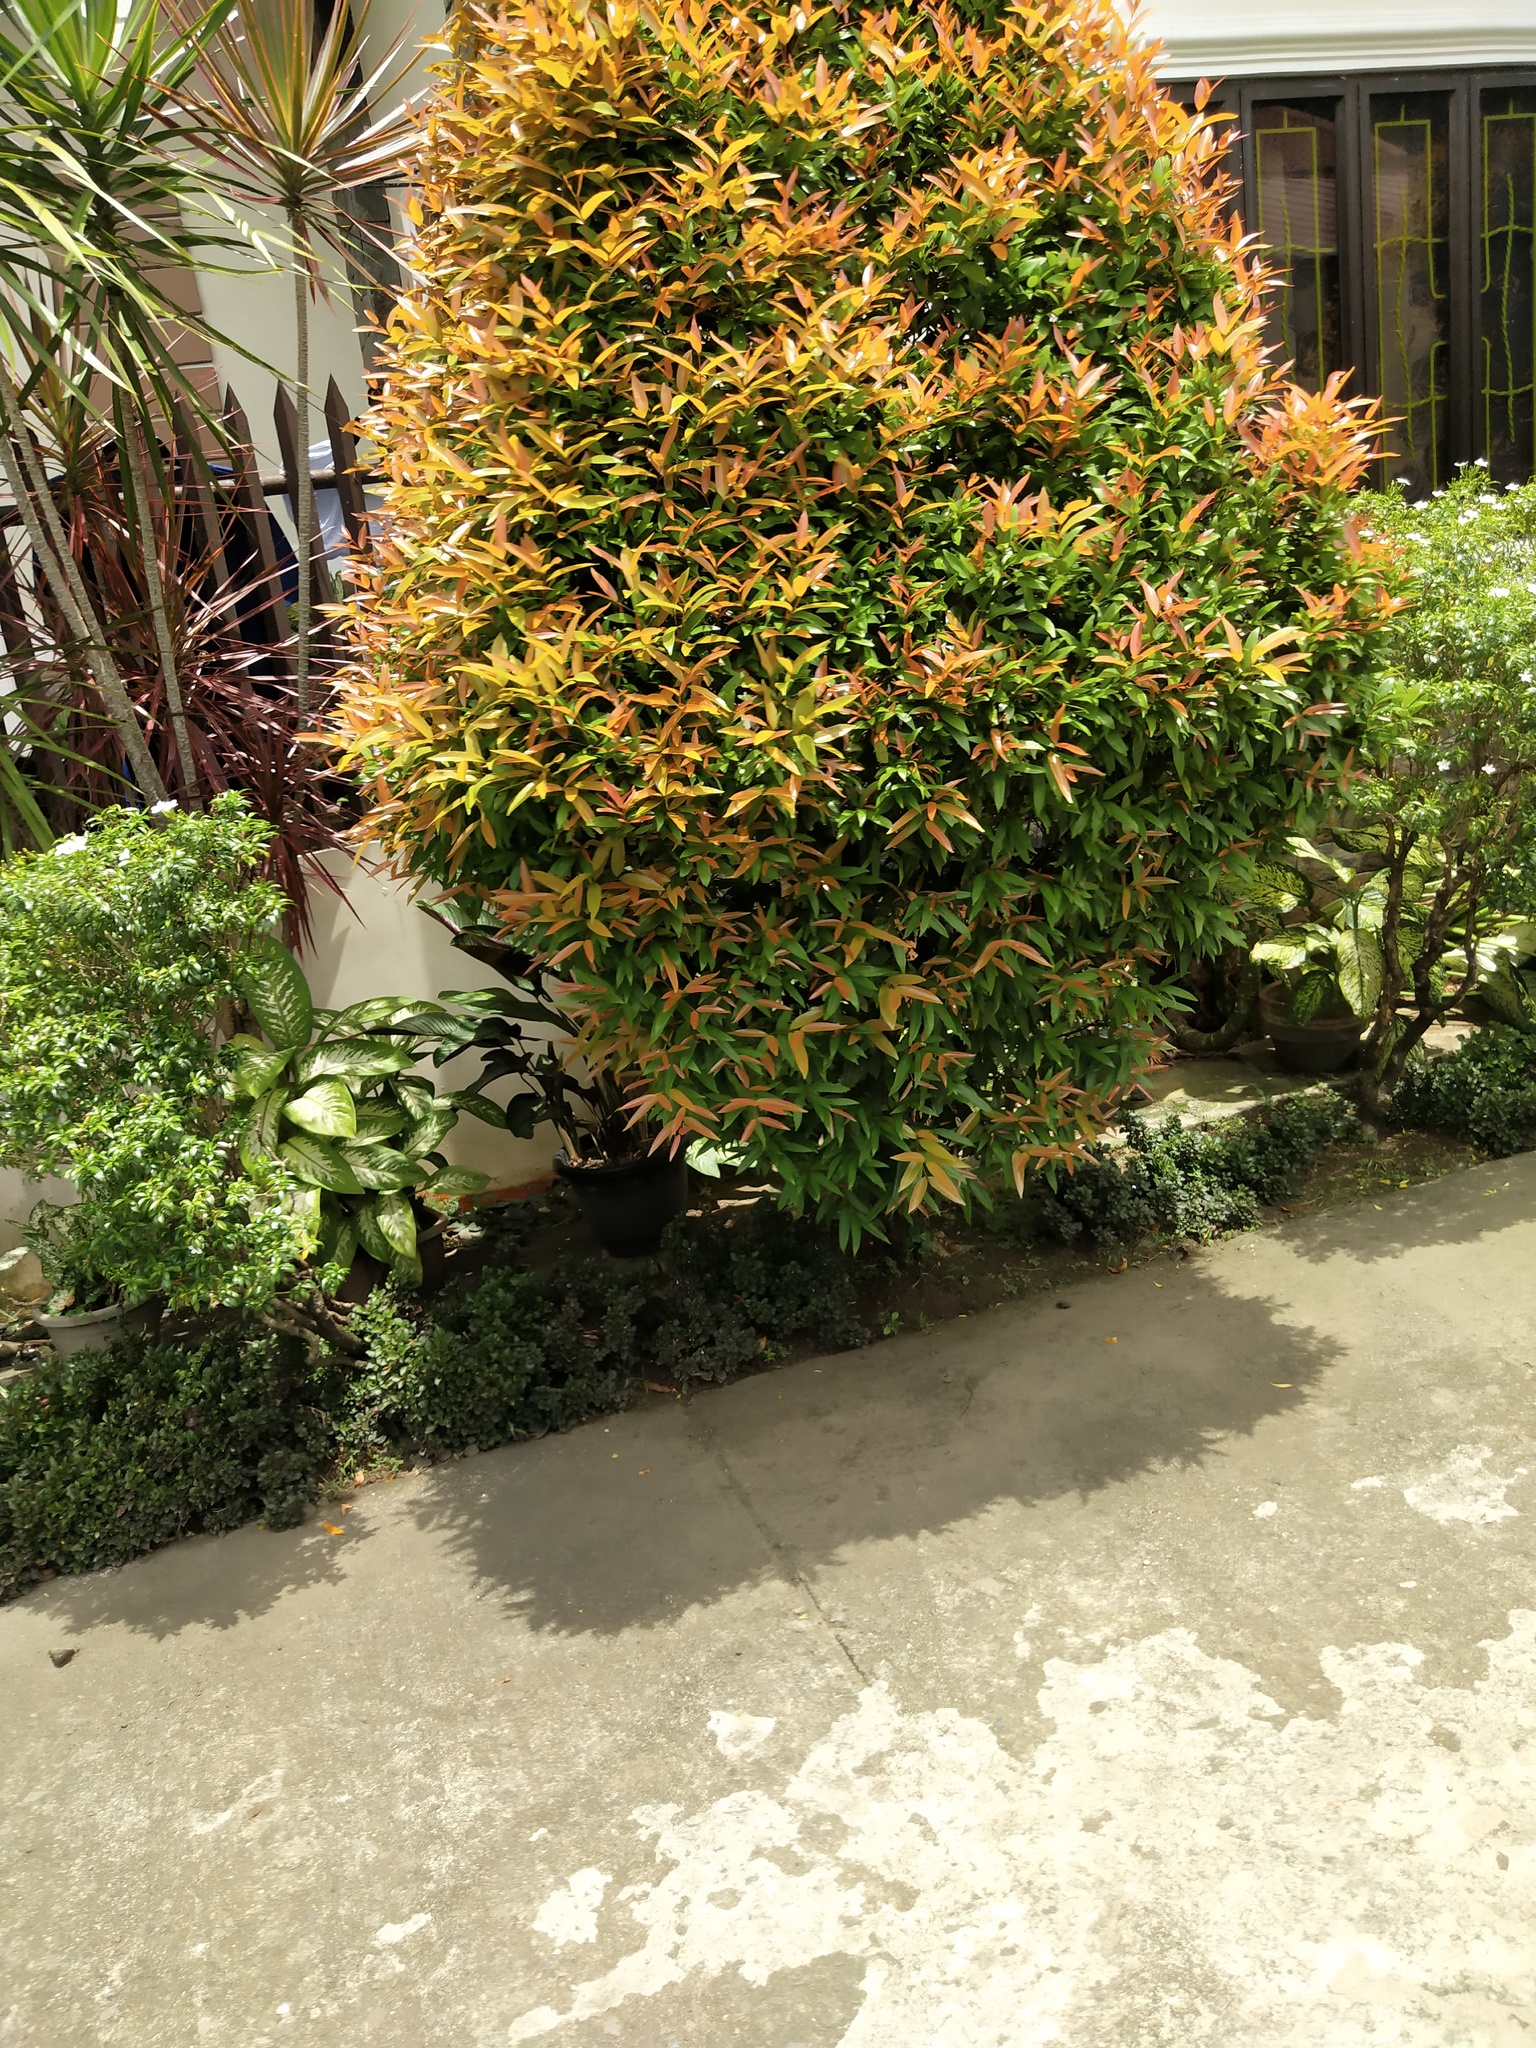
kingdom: Plantae
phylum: Tracheophyta
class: Magnoliopsida
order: Myrtales
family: Myrtaceae
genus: Syzygium
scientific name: Syzygium myrtifolium
